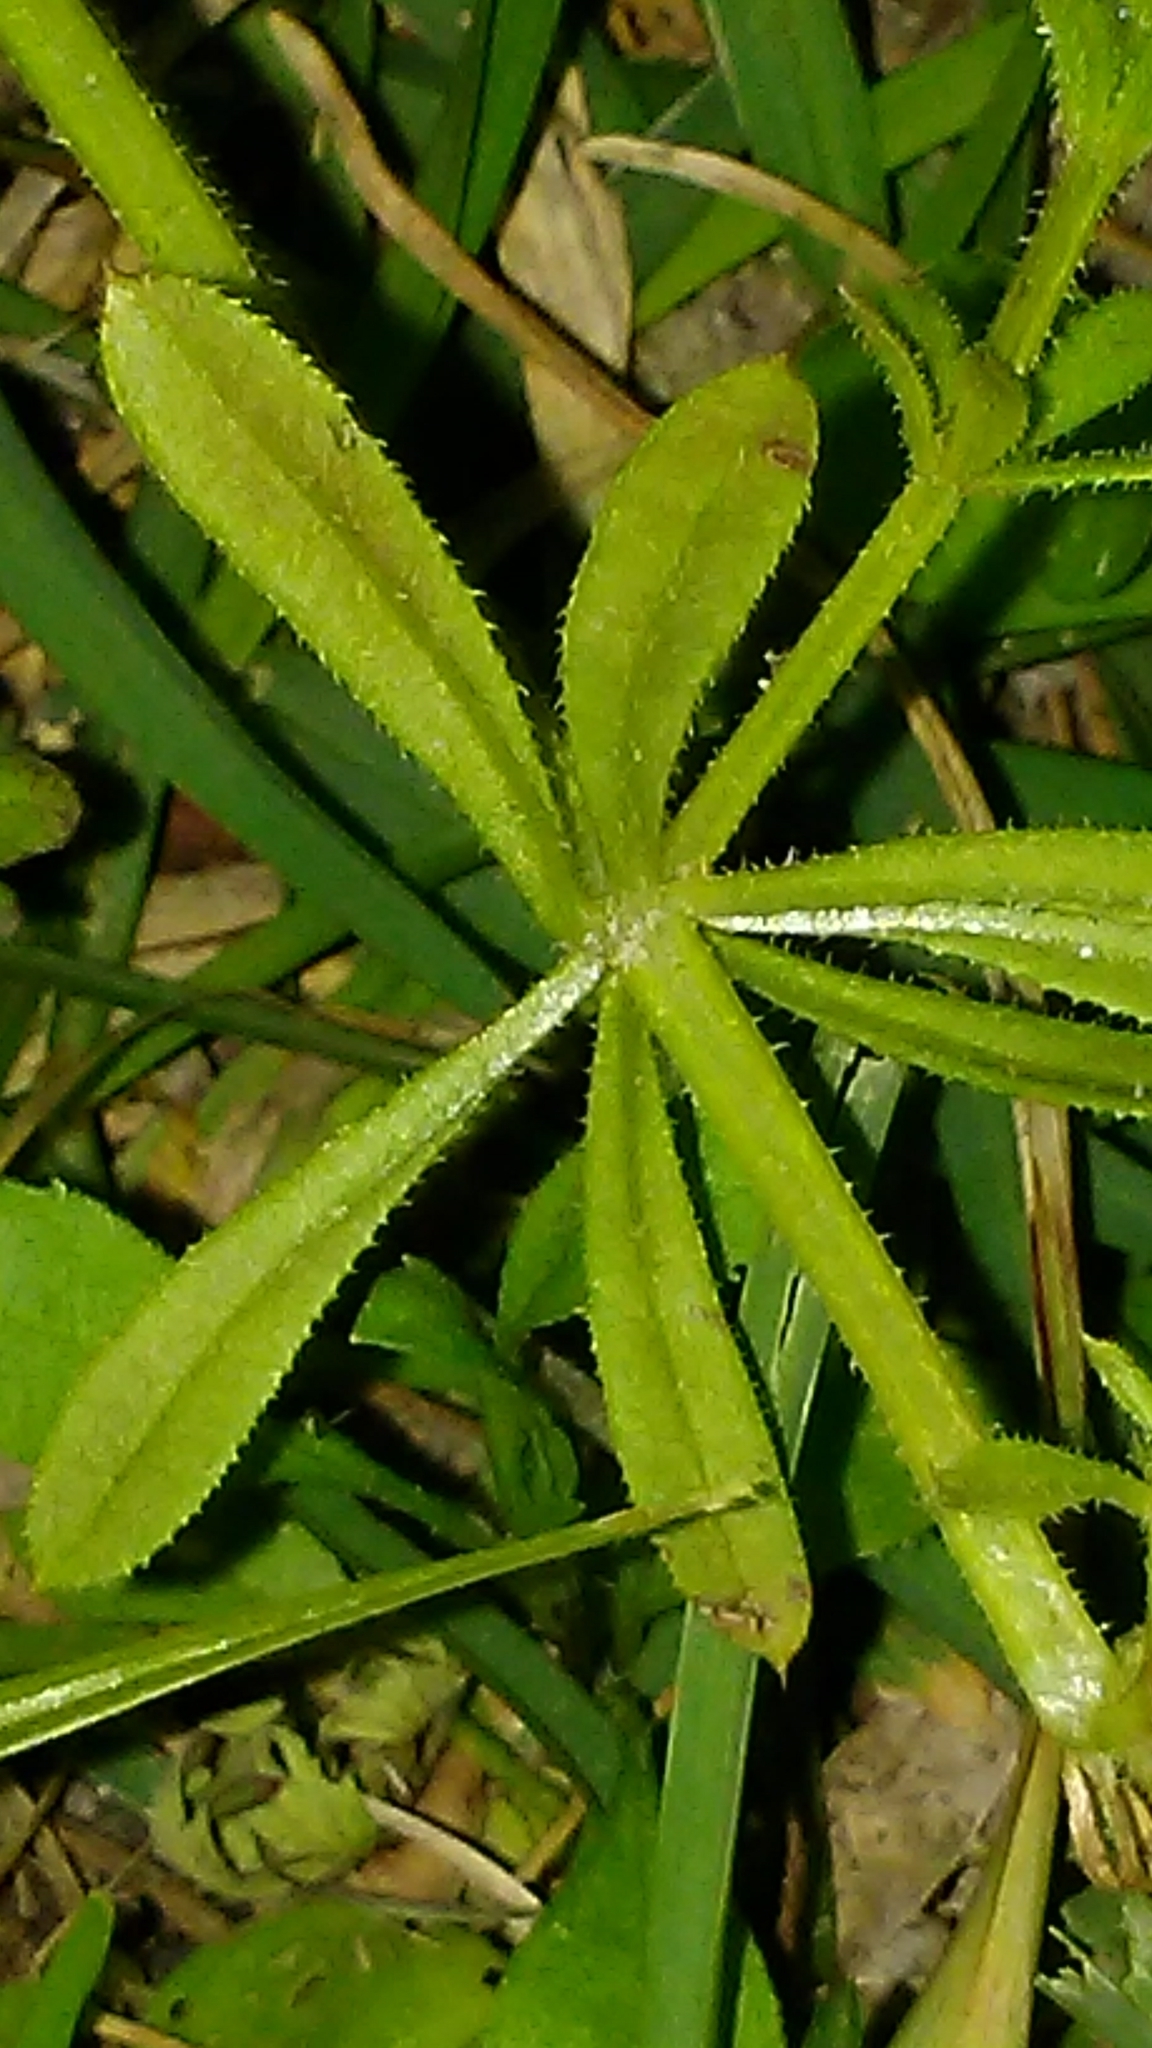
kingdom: Plantae
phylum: Tracheophyta
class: Magnoliopsida
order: Gentianales
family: Rubiaceae
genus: Galium
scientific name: Galium aparine
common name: Cleavers
